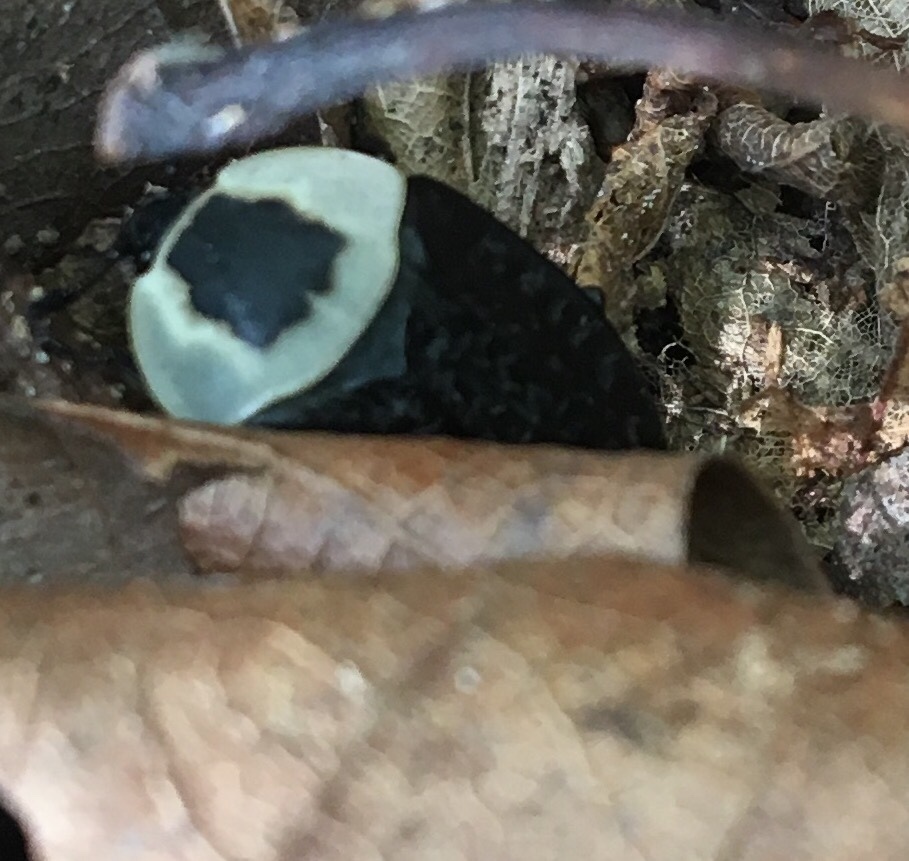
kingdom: Animalia
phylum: Arthropoda
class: Insecta
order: Coleoptera
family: Staphylinidae
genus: Necrophila
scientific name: Necrophila americana
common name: American carrion beetle
